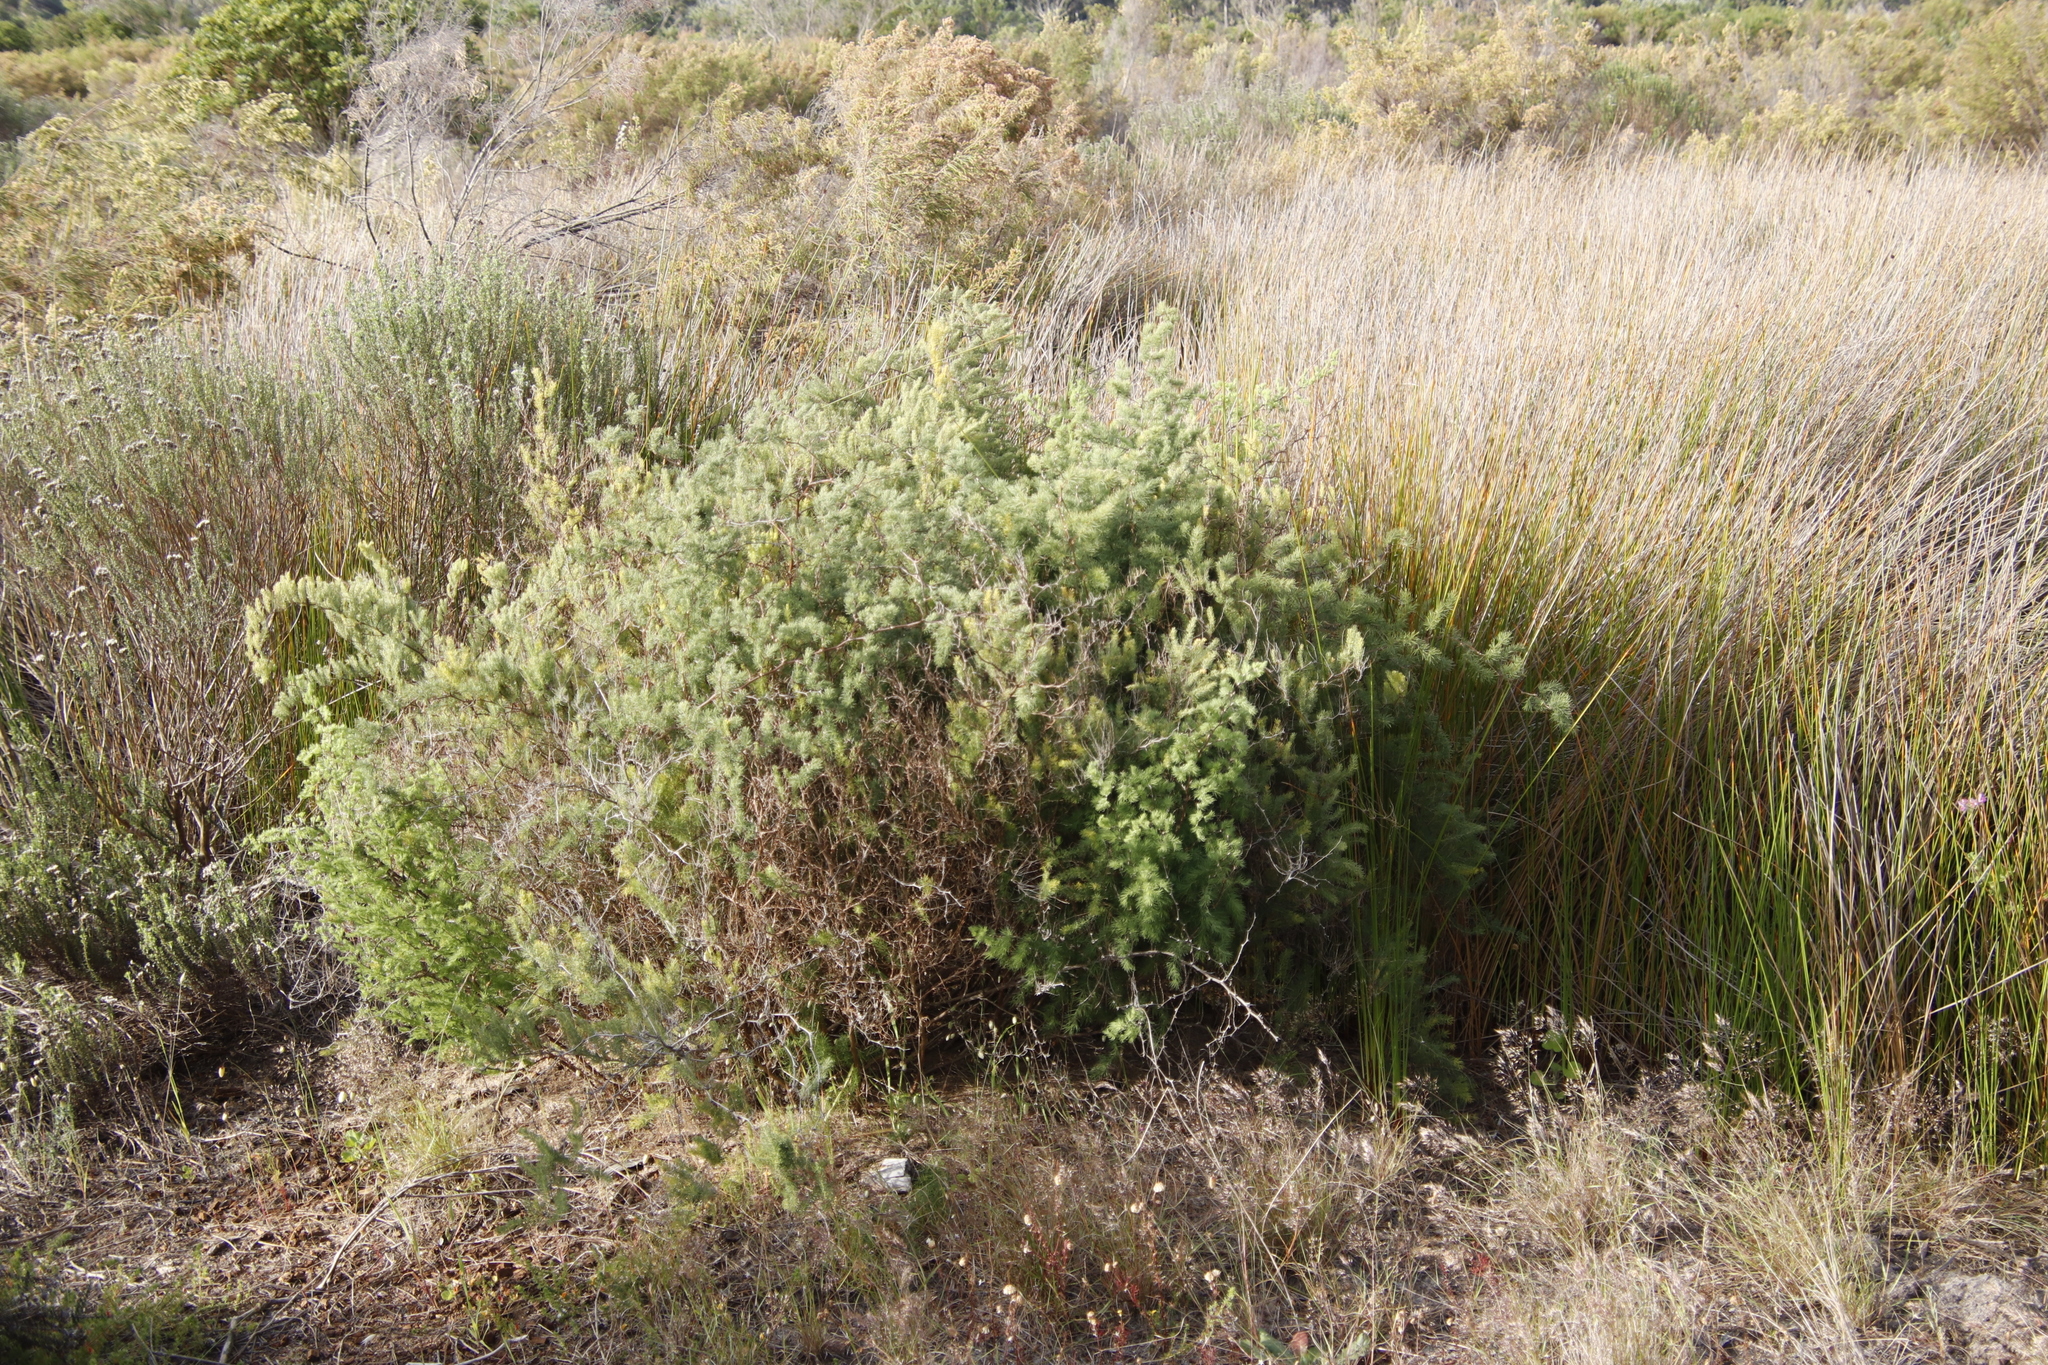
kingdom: Plantae
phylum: Tracheophyta
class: Liliopsida
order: Asparagales
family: Asparagaceae
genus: Asparagus
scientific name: Asparagus rubicundus
